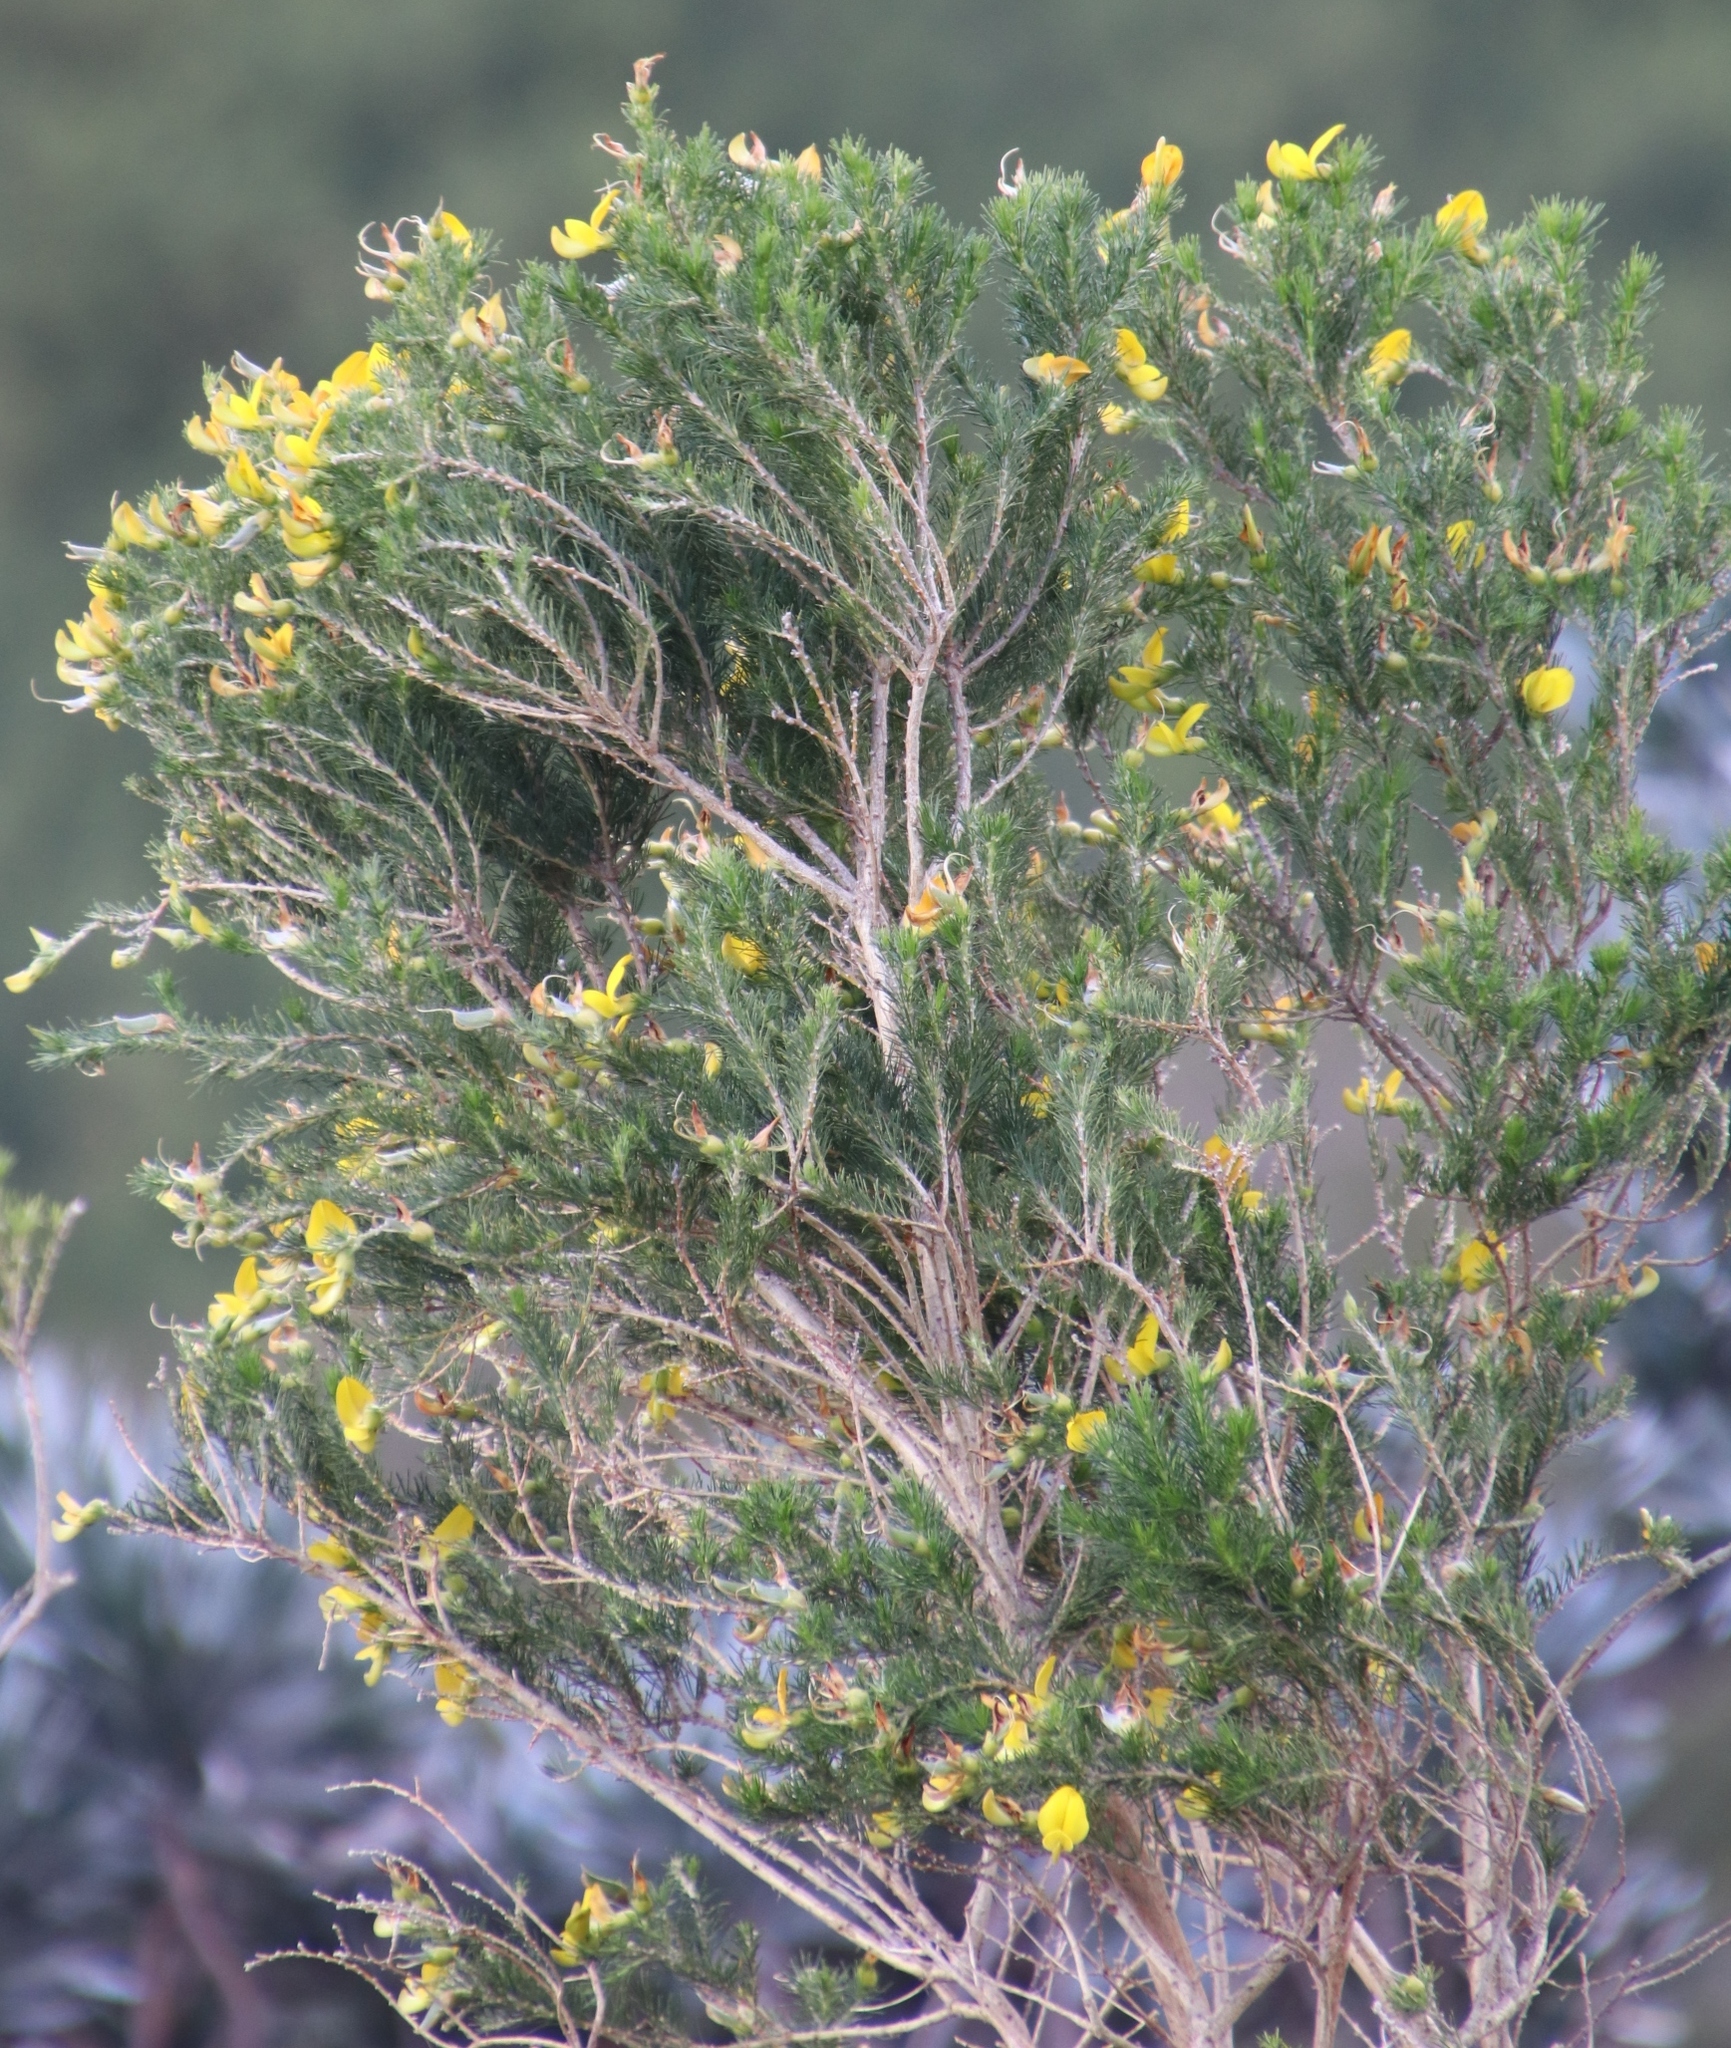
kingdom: Plantae
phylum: Tracheophyta
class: Magnoliopsida
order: Fabales
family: Fabaceae
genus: Aspalathus
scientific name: Aspalathus macrantha
